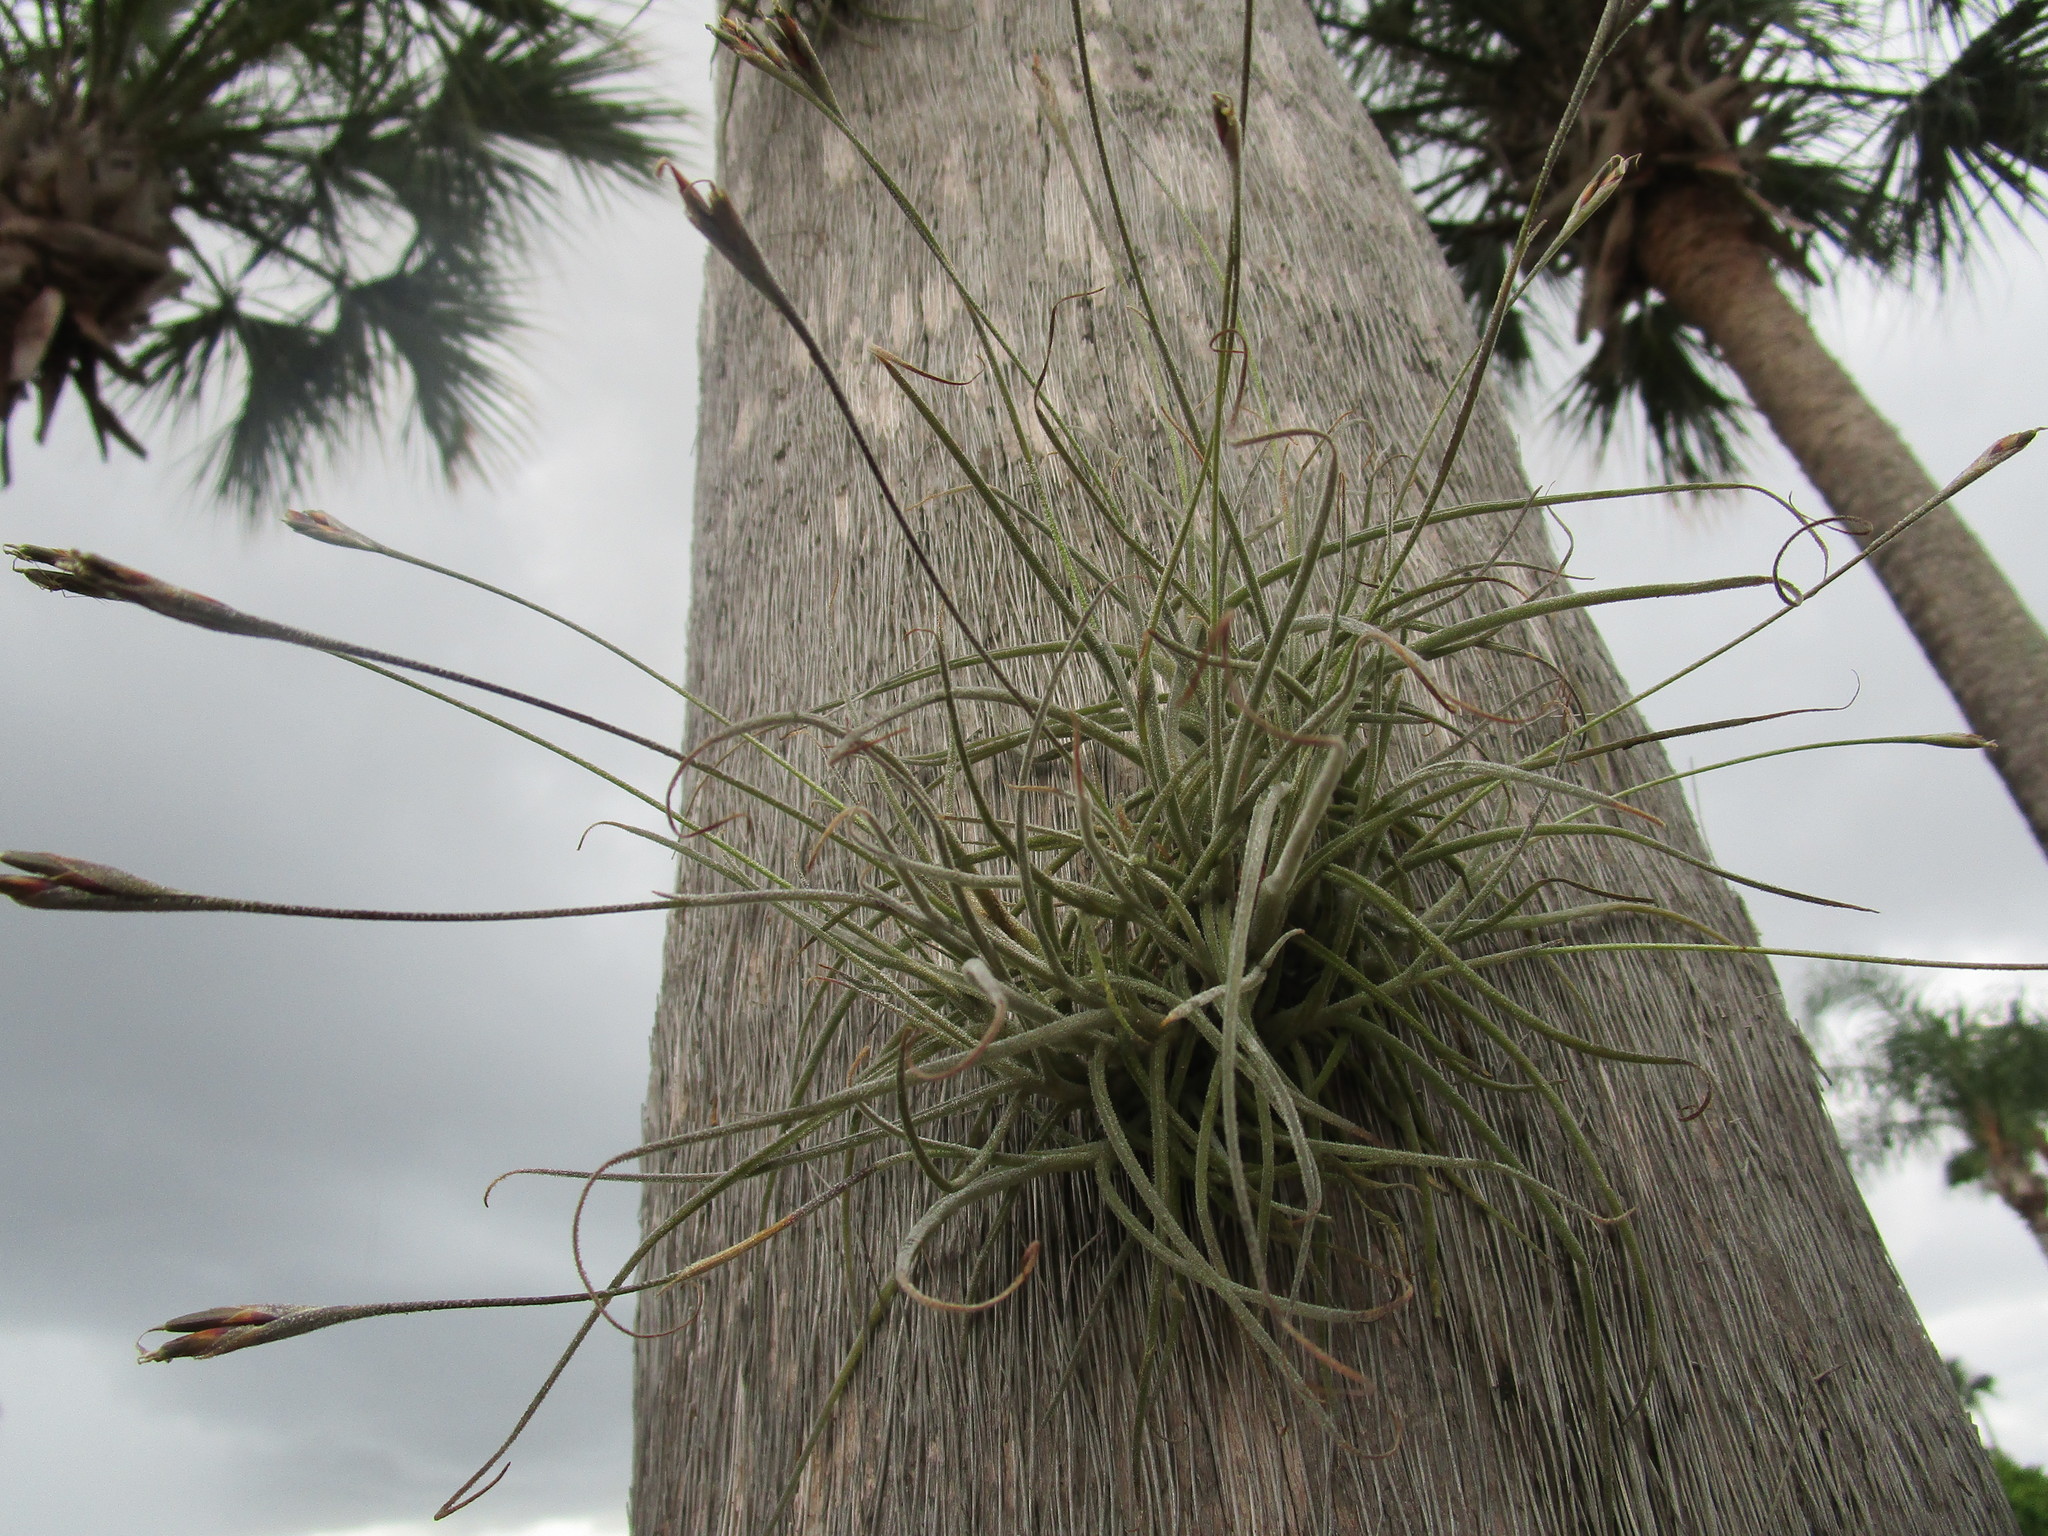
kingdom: Plantae
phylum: Tracheophyta
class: Liliopsida
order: Poales
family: Bromeliaceae
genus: Tillandsia
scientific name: Tillandsia recurvata
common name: Small ballmoss
